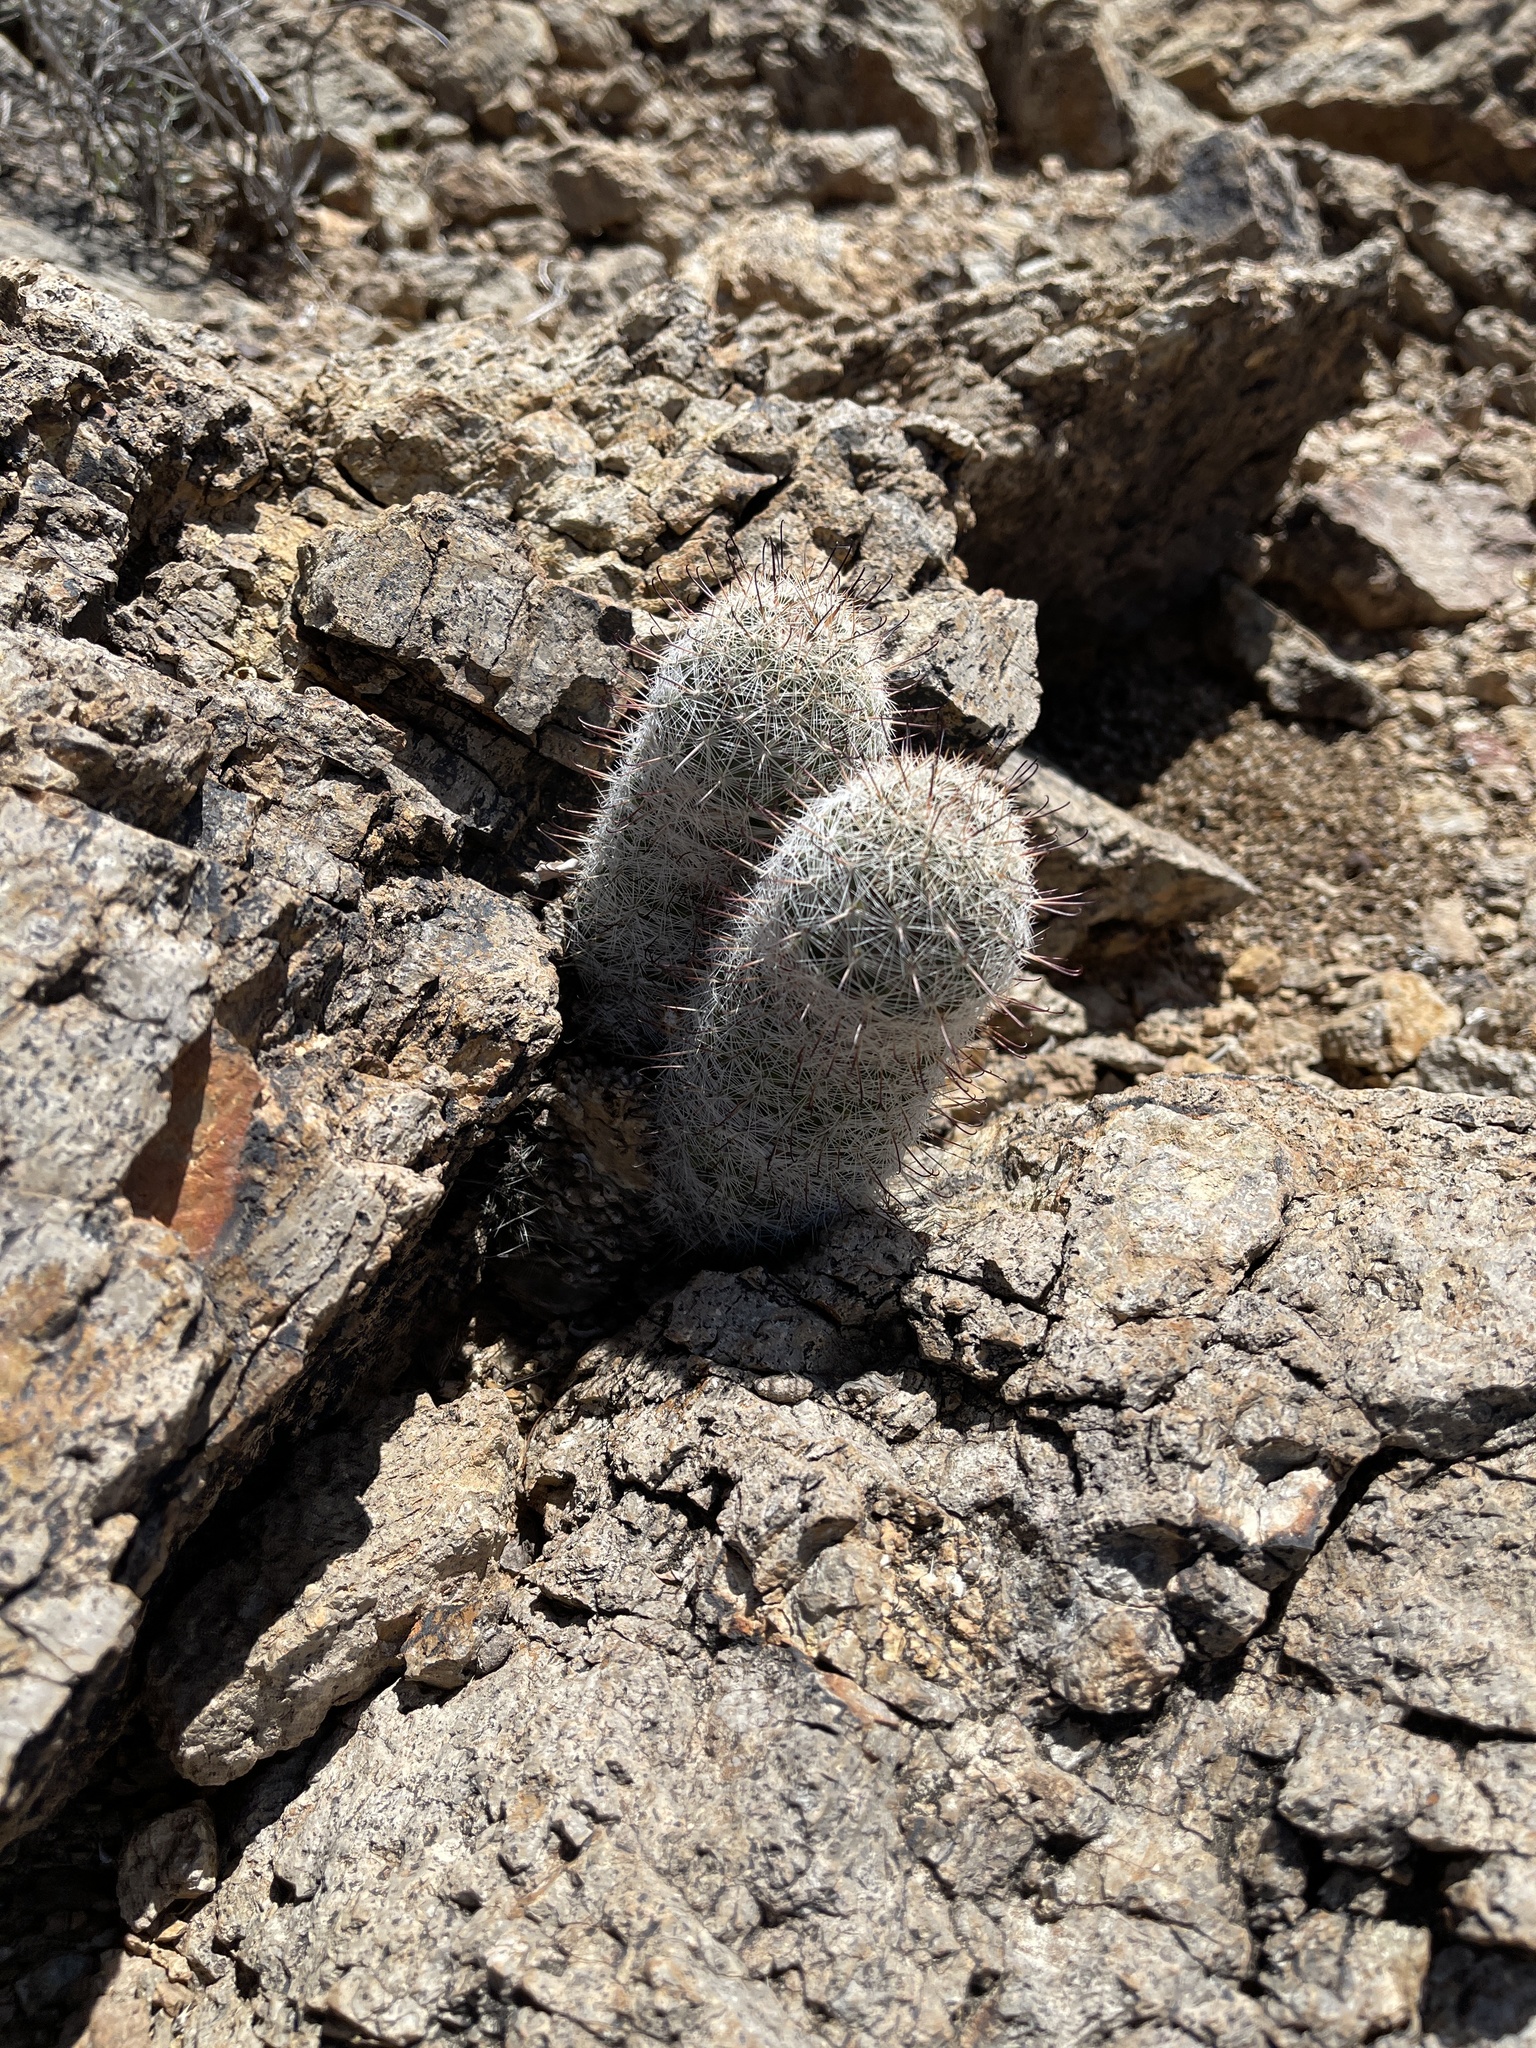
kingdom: Plantae
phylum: Tracheophyta
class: Magnoliopsida
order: Caryophyllales
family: Cactaceae
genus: Cochemiea
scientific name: Cochemiea grahamii
